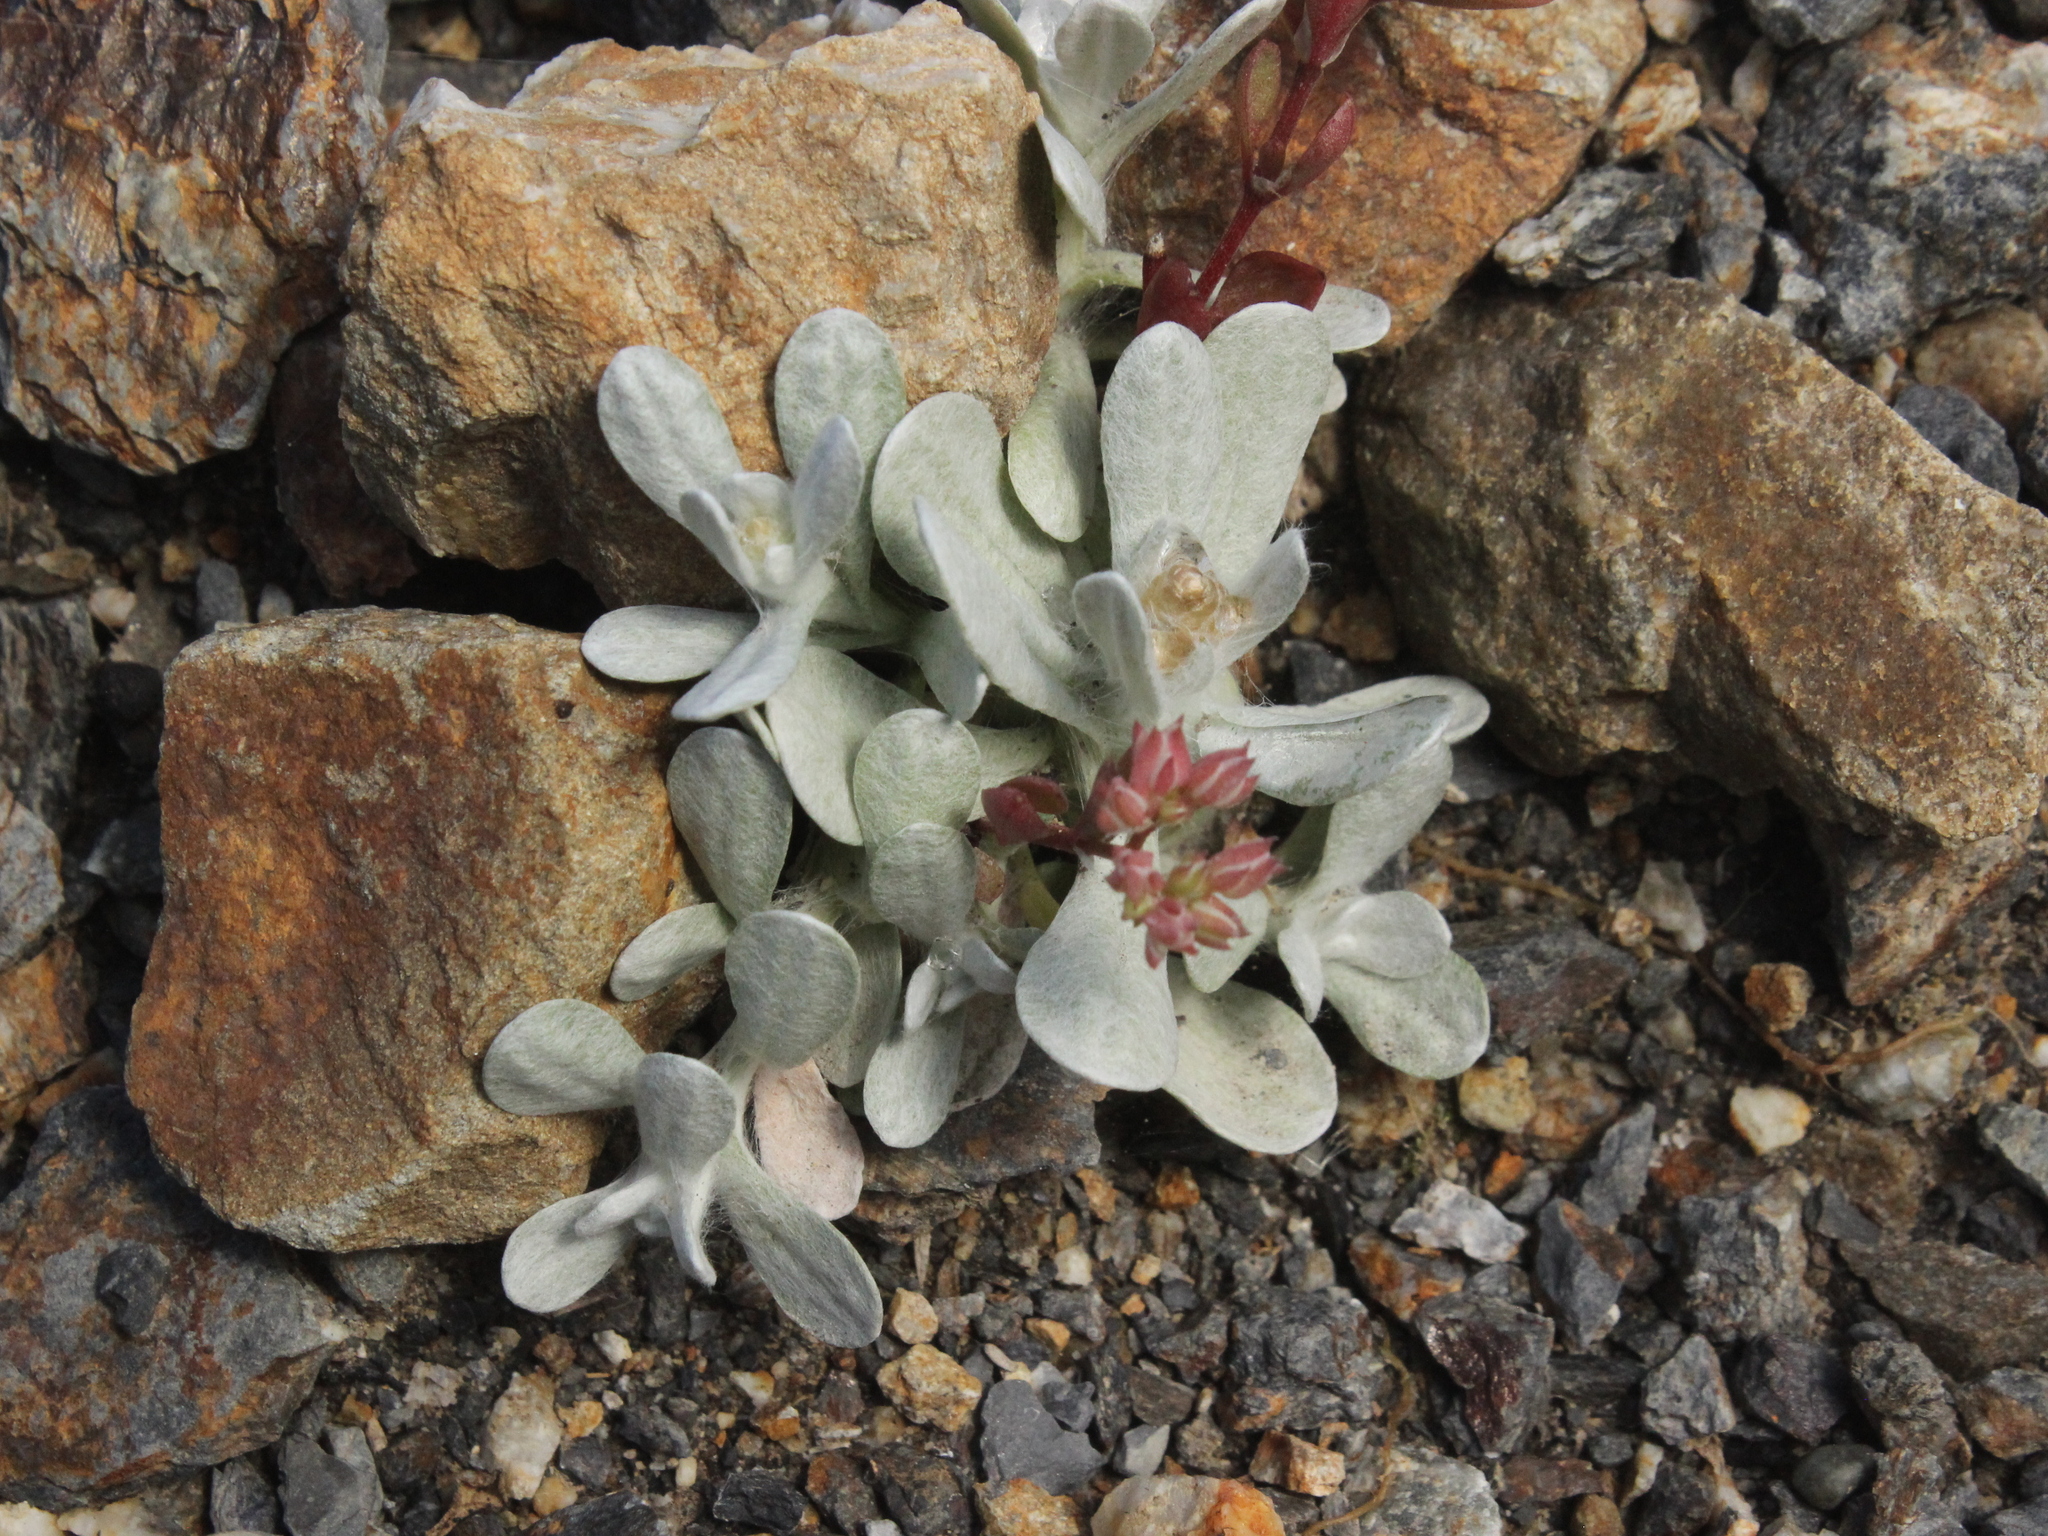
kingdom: Plantae
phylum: Tracheophyta
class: Magnoliopsida
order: Asterales
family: Asteraceae
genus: Pseudognaphalium
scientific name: Pseudognaphalium
